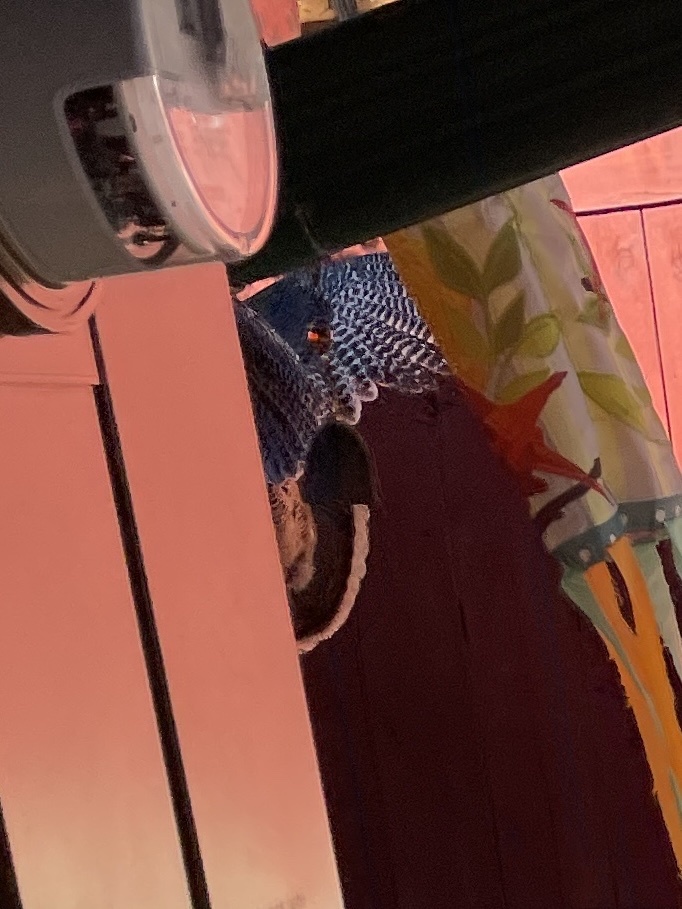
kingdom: Animalia
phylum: Chordata
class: Aves
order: Galliformes
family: Phasianidae
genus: Meleagris
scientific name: Meleagris gallopavo
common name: Wild turkey
